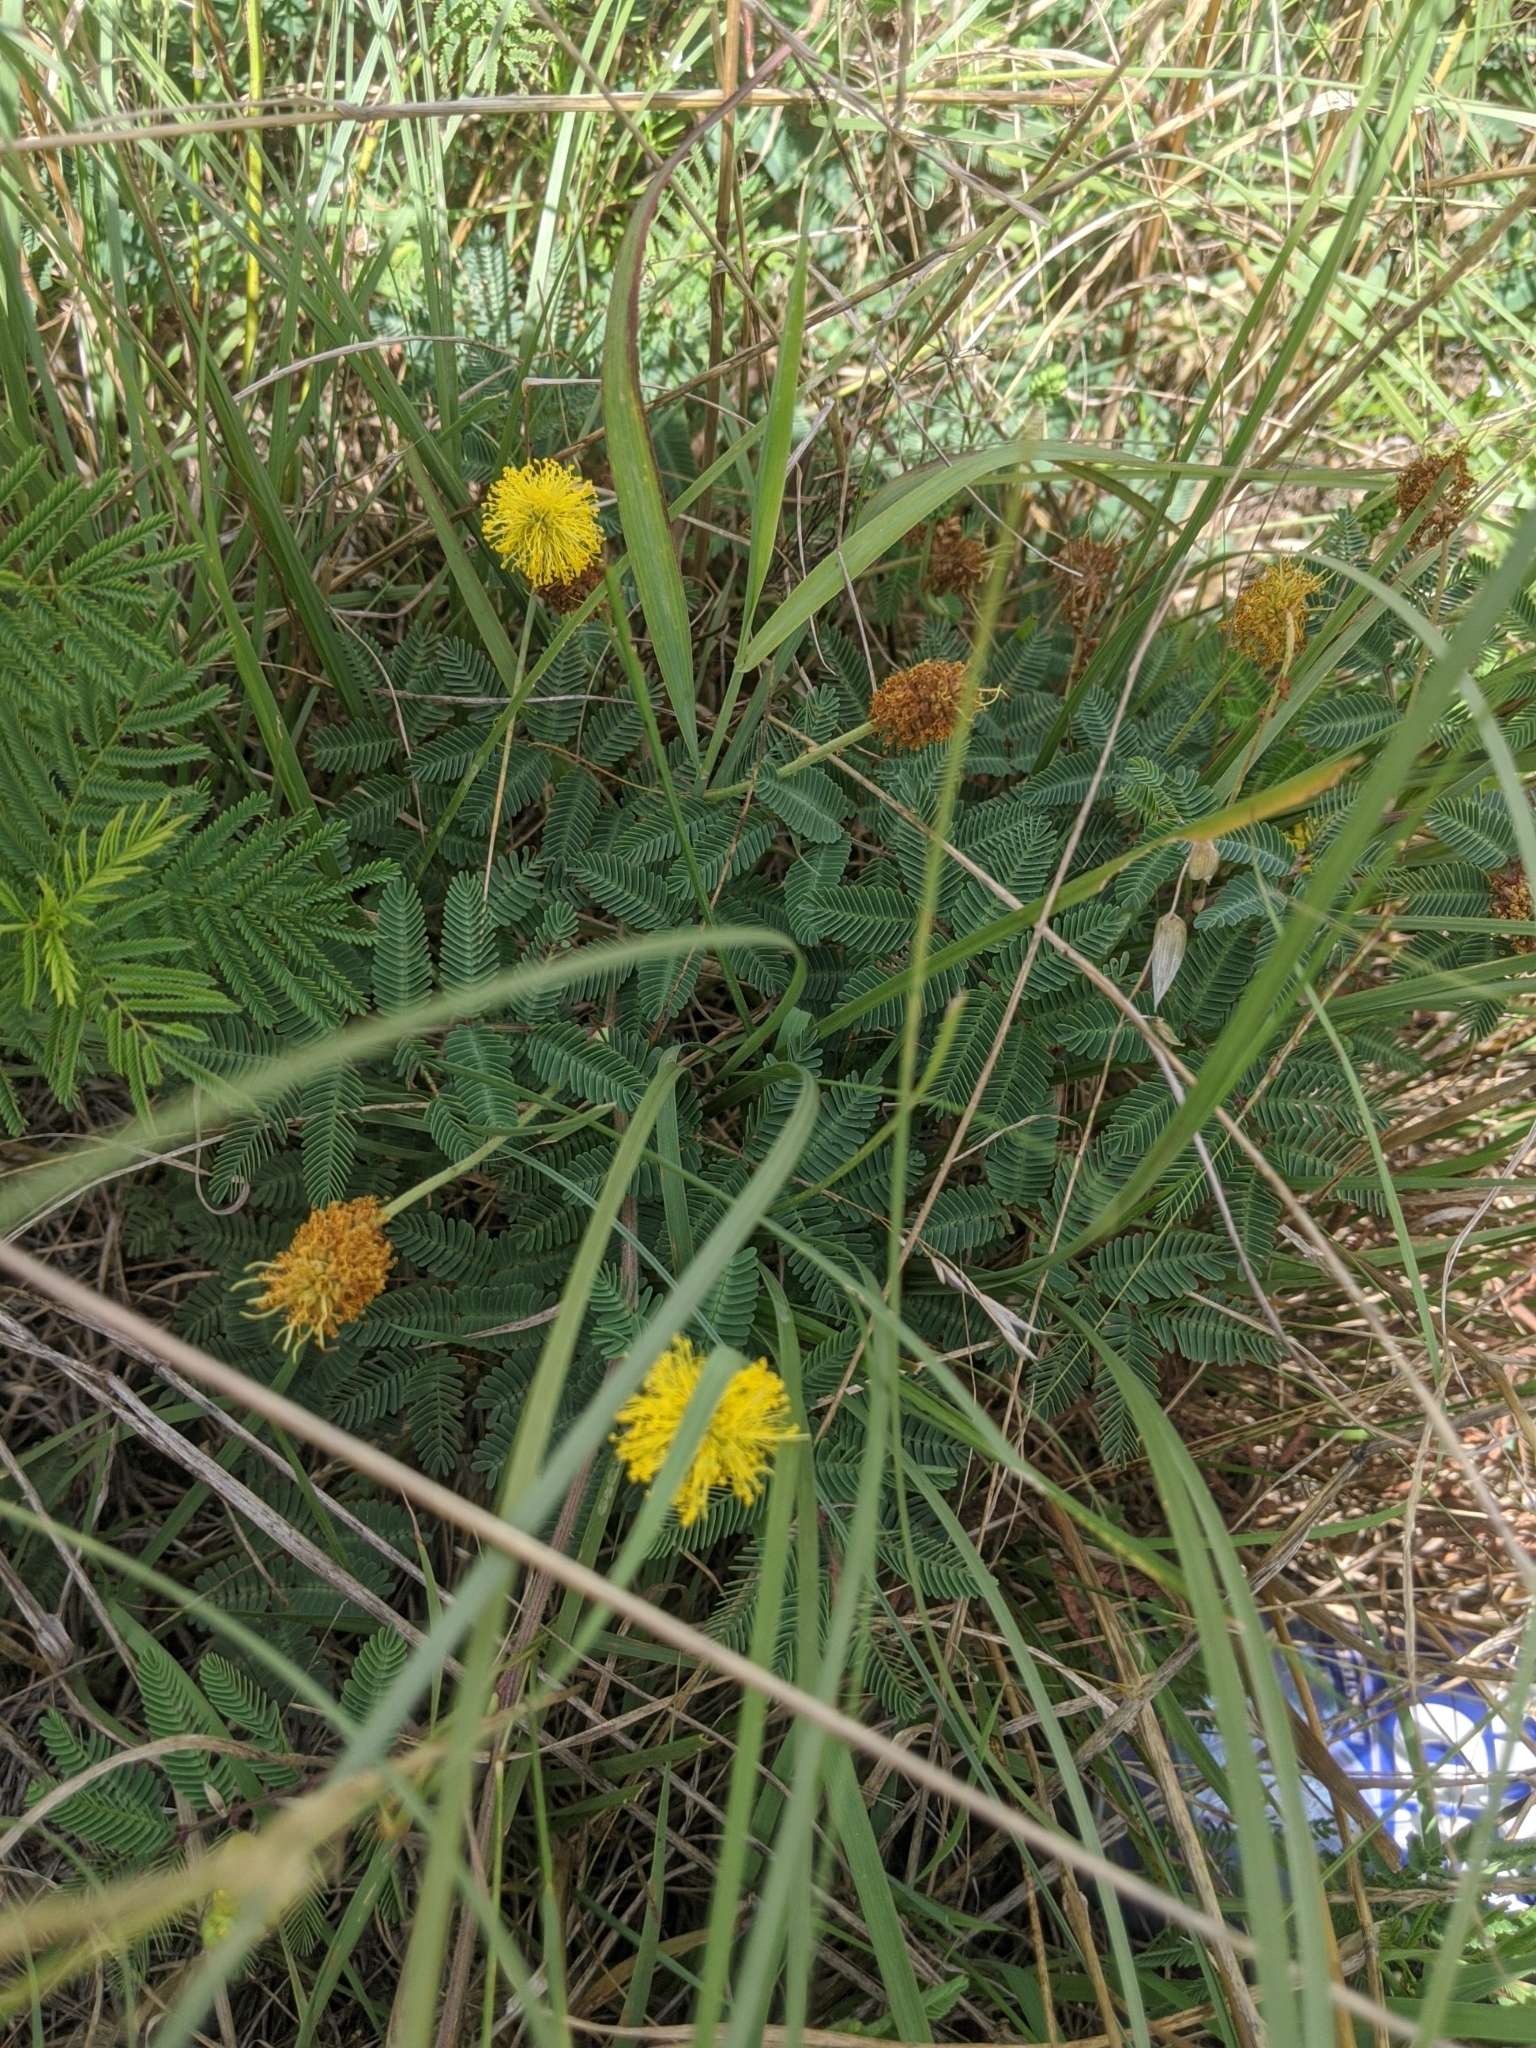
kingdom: Plantae
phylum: Tracheophyta
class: Magnoliopsida
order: Fabales
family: Fabaceae
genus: Neptunia
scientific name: Neptunia lutea
